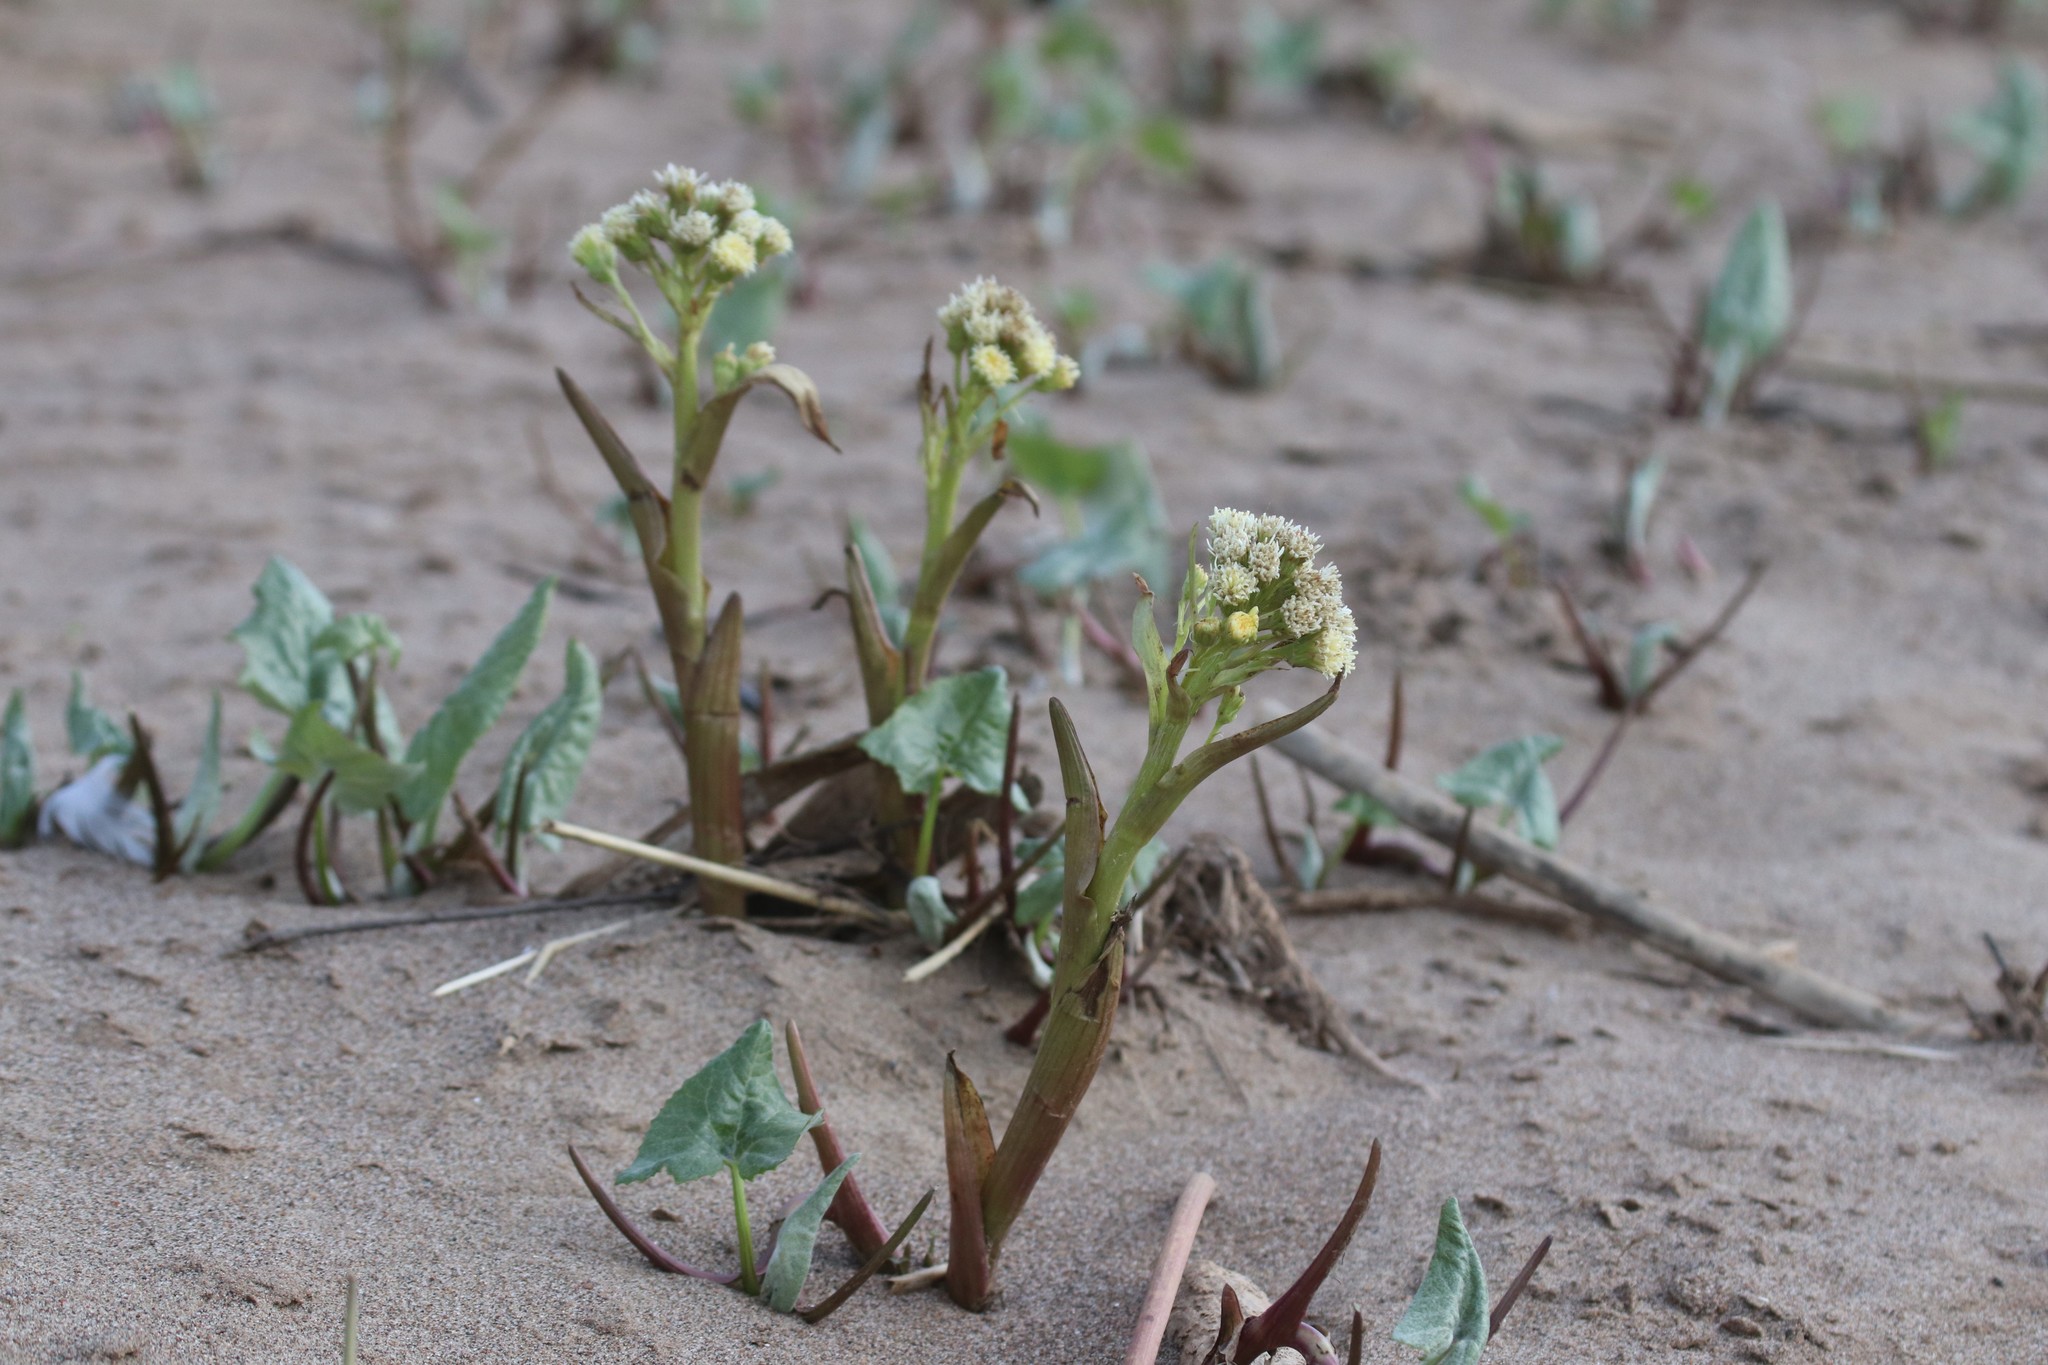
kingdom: Plantae
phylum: Tracheophyta
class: Magnoliopsida
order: Asterales
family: Asteraceae
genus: Petasites
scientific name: Petasites spurius
